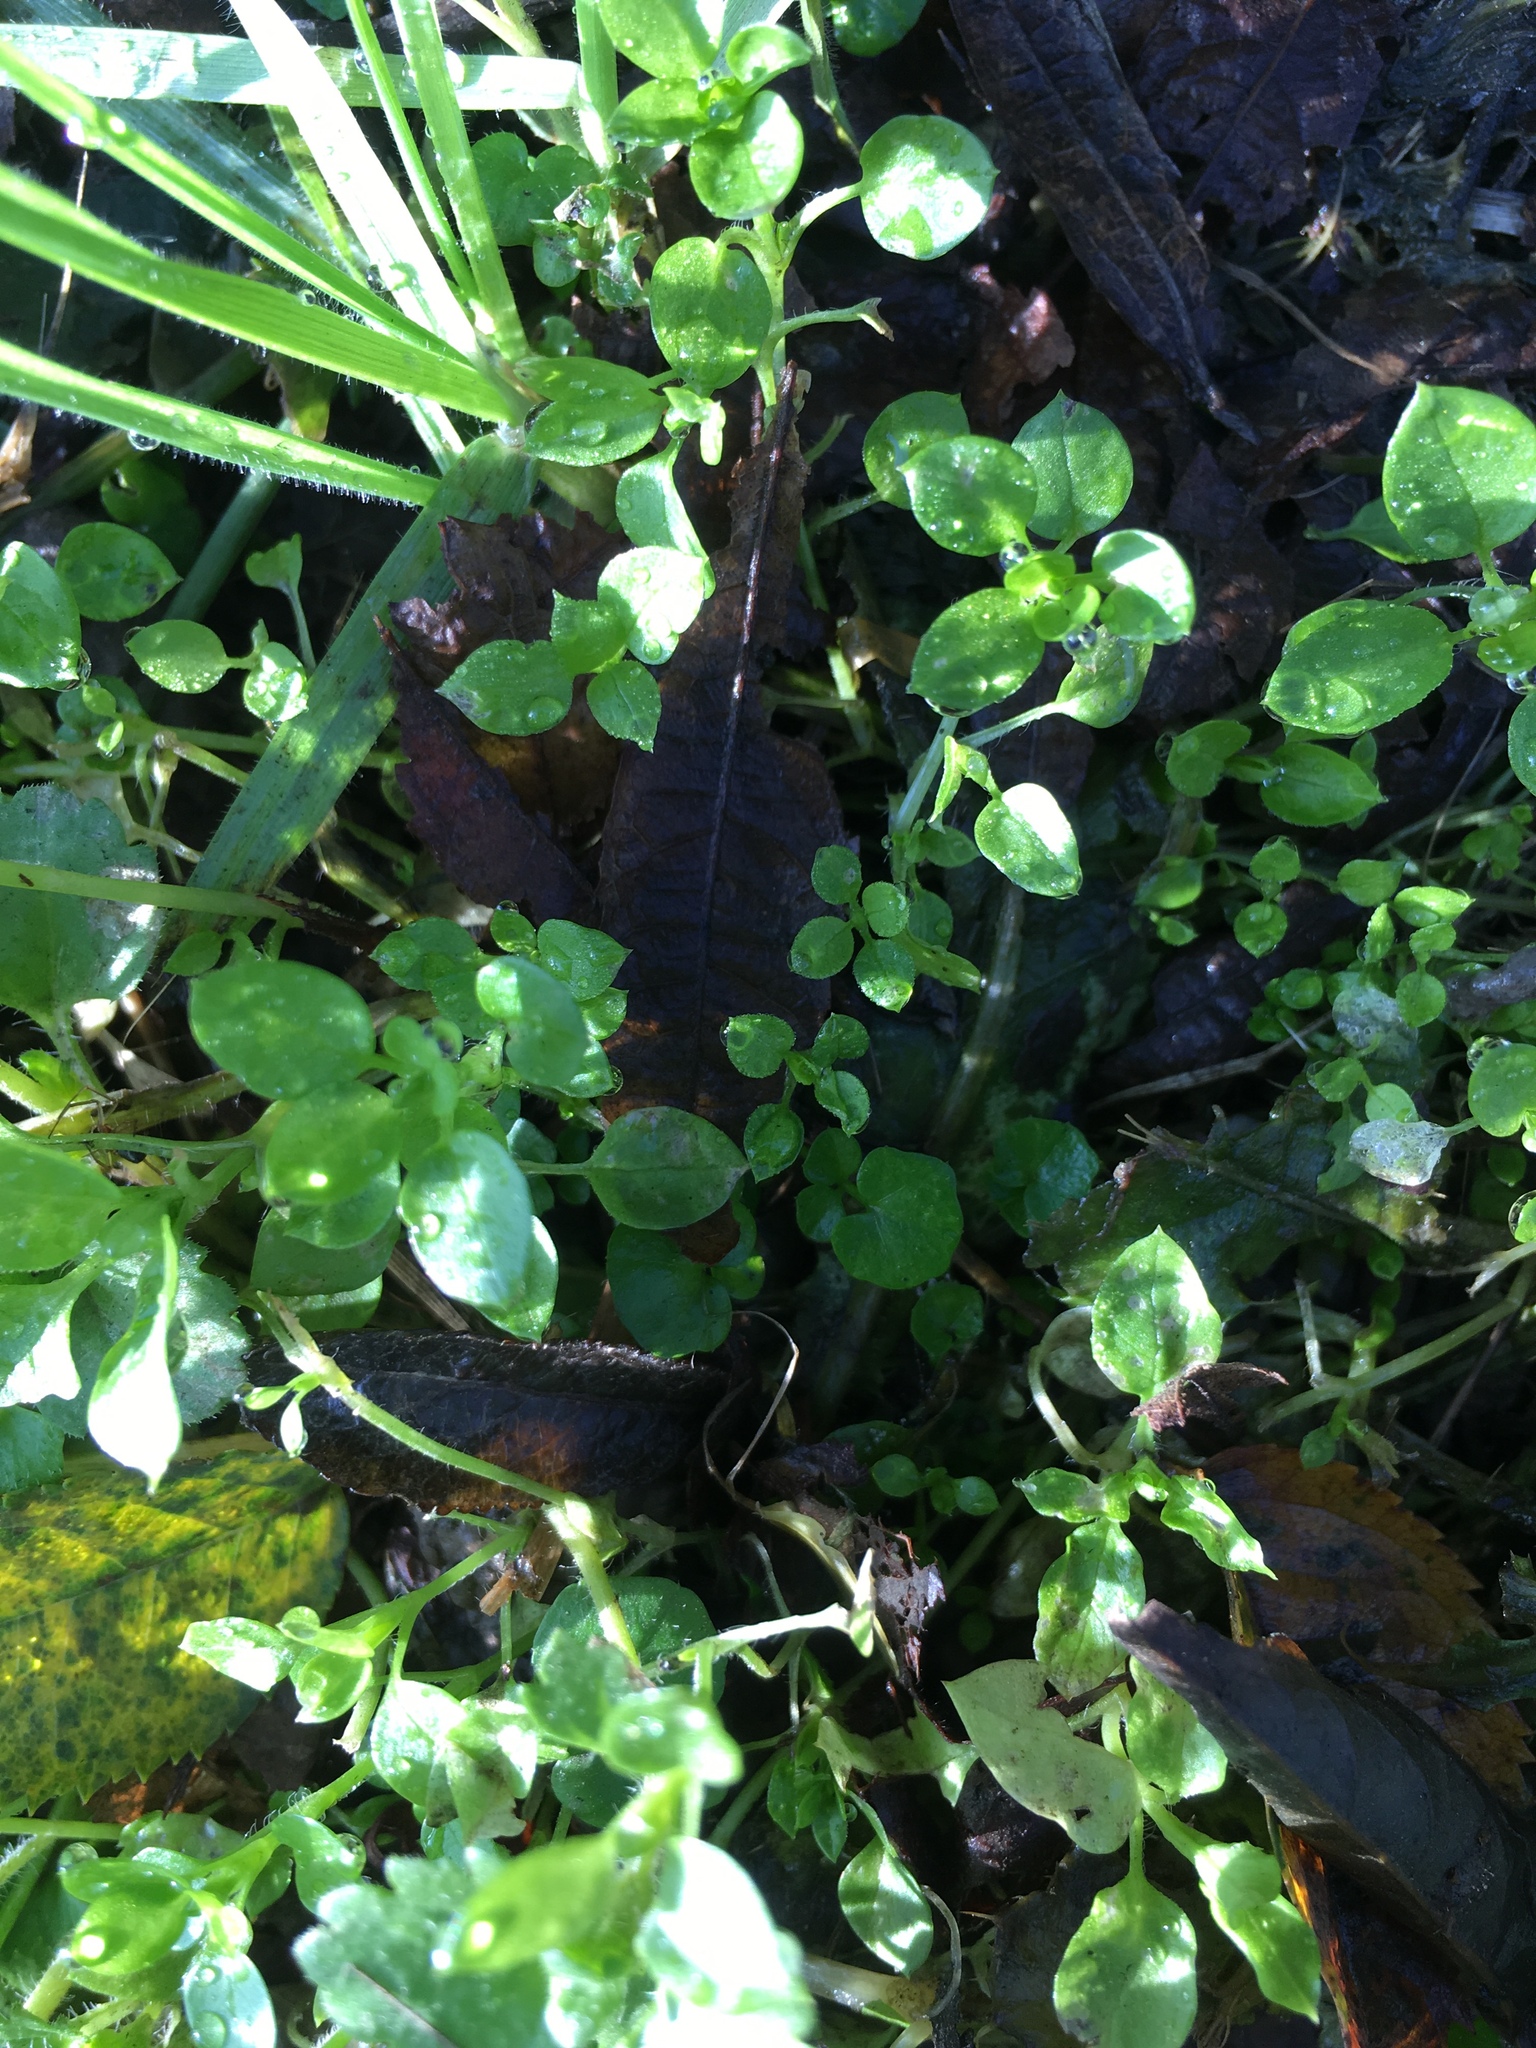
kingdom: Plantae
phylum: Tracheophyta
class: Magnoliopsida
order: Caryophyllales
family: Caryophyllaceae
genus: Stellaria
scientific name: Stellaria media
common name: Common chickweed
